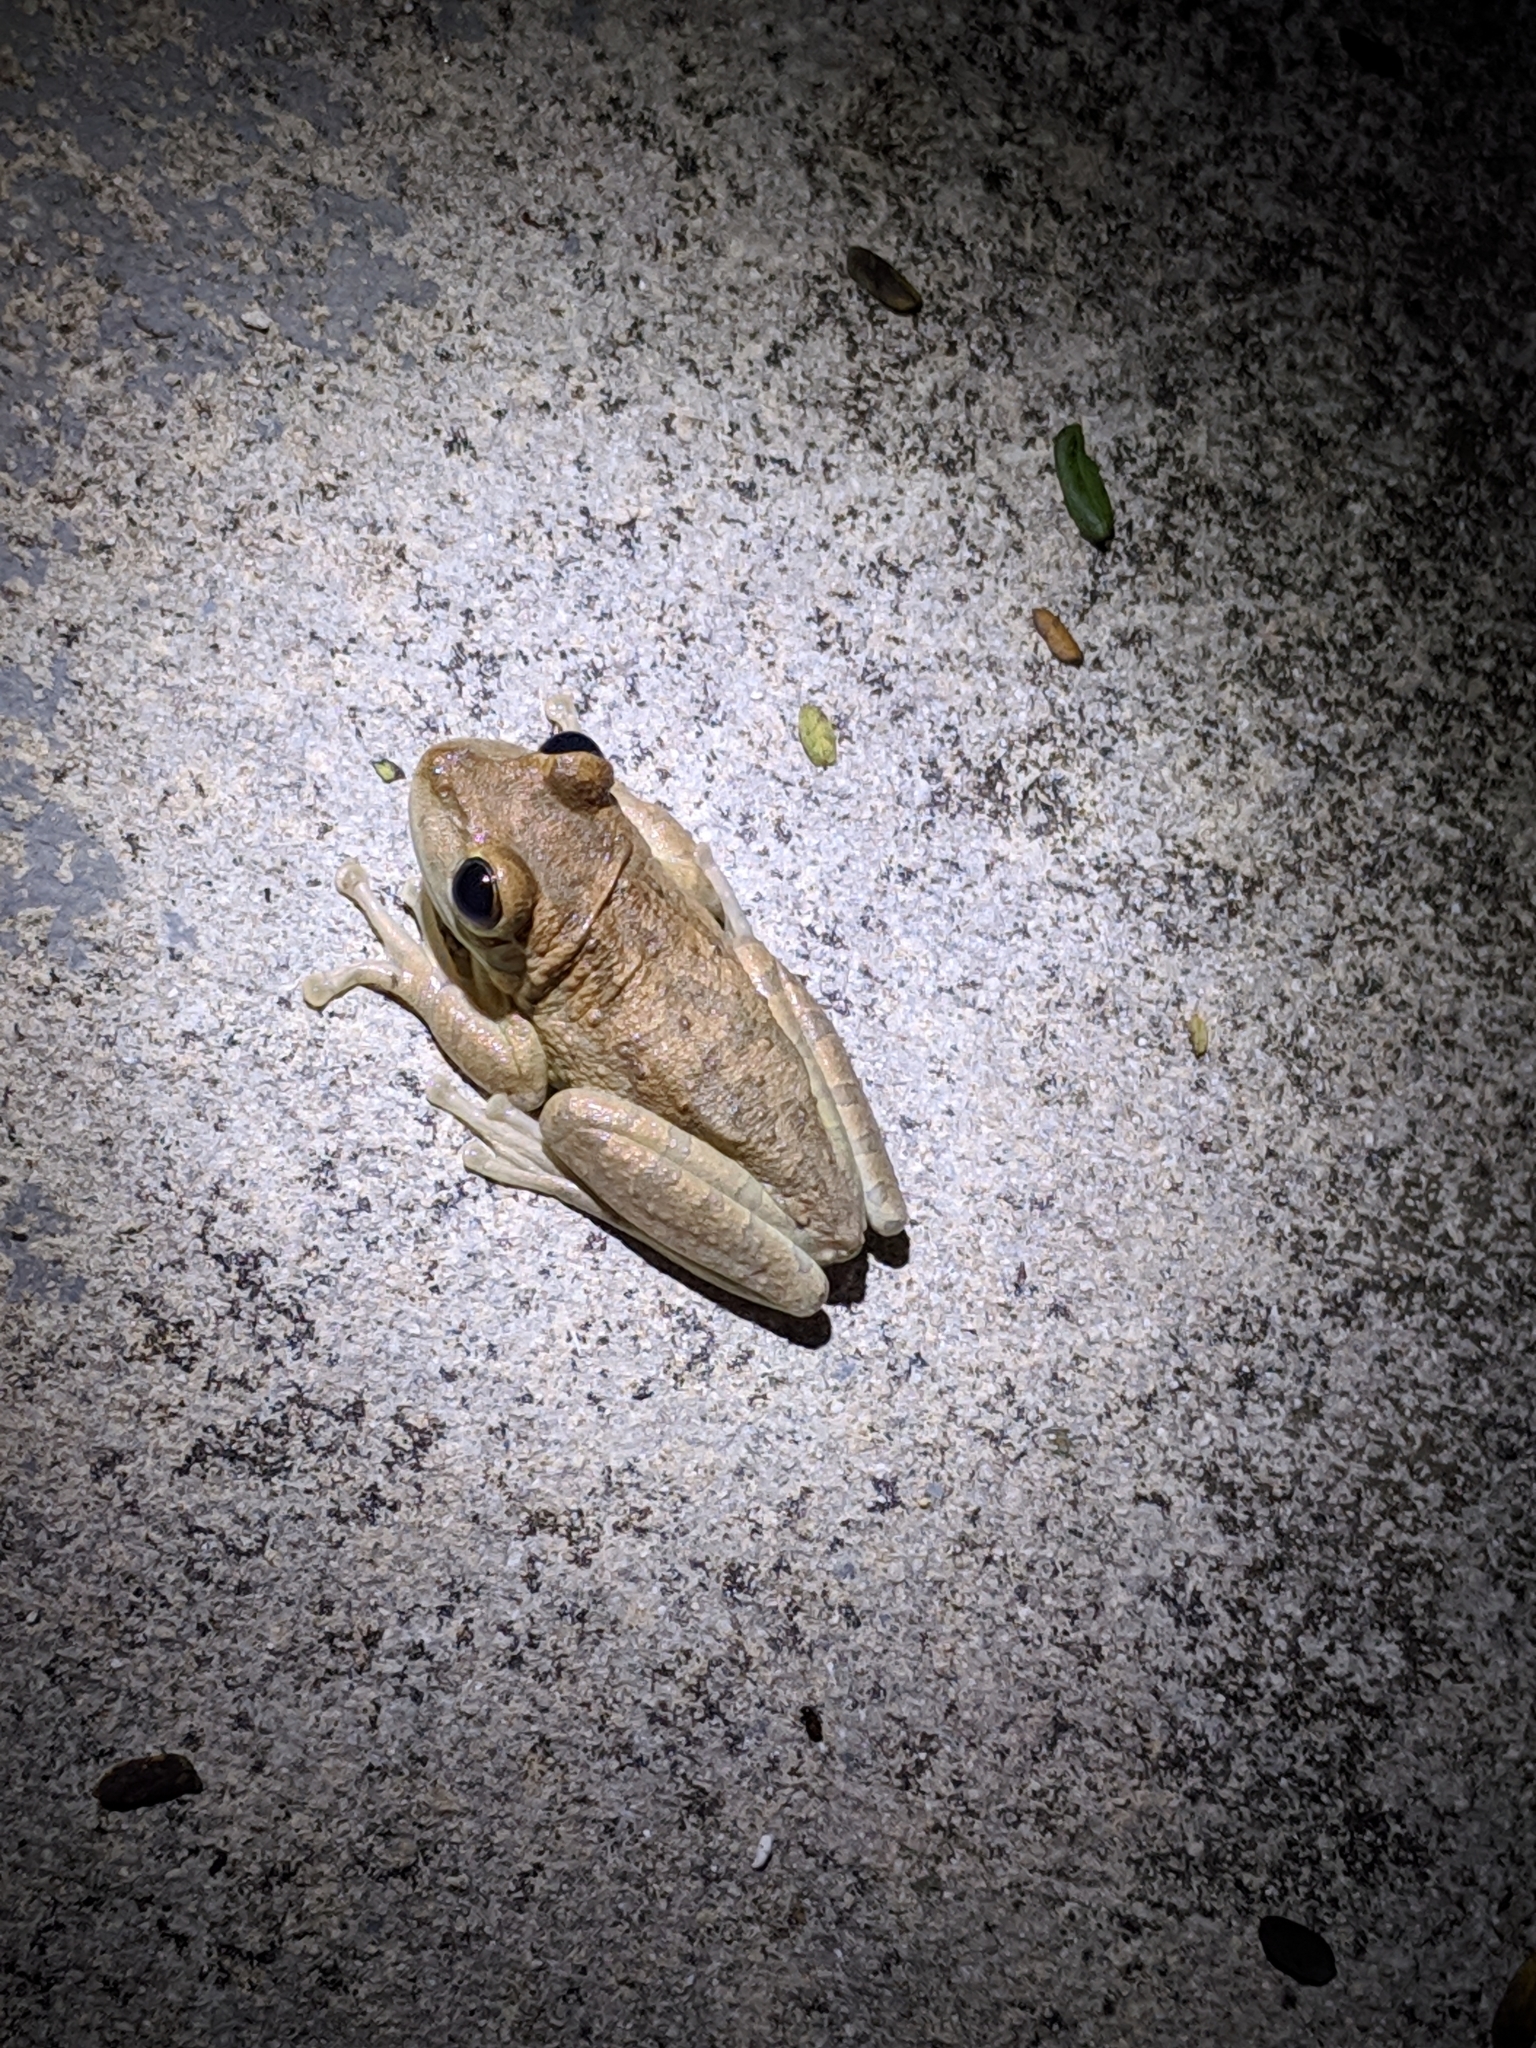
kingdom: Animalia
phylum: Chordata
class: Amphibia
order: Anura
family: Hylidae
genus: Osteopilus
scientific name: Osteopilus septentrionalis
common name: Cuban treefrog
